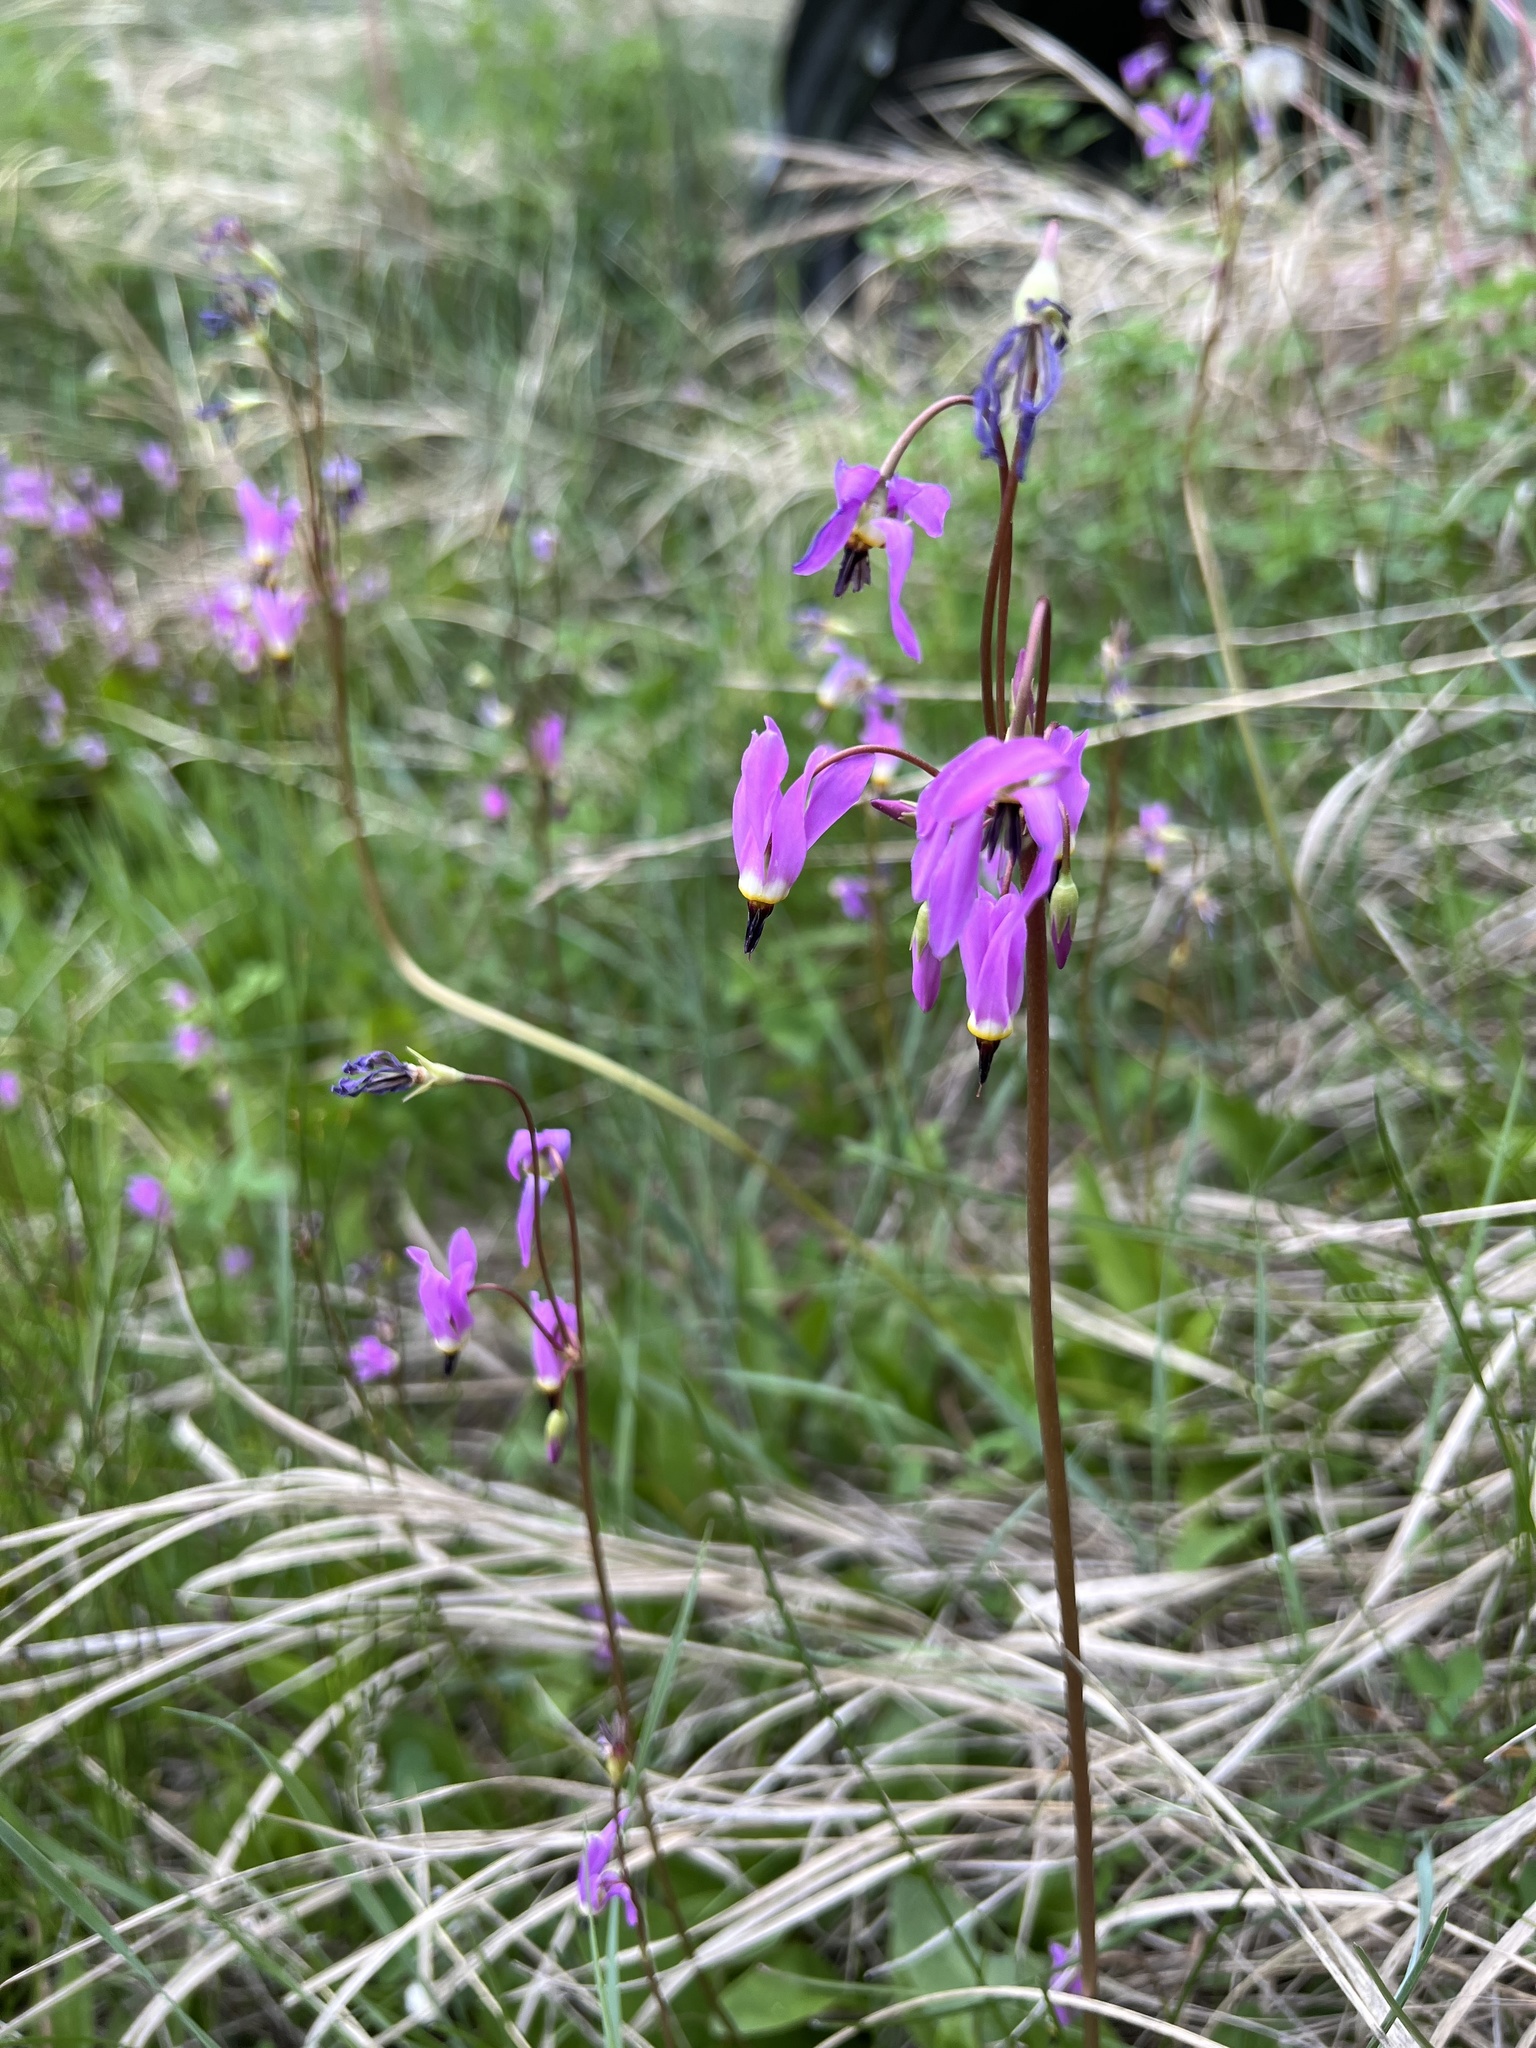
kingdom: Plantae
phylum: Tracheophyta
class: Magnoliopsida
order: Ericales
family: Primulaceae
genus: Dodecatheon
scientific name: Dodecatheon pulchellum
